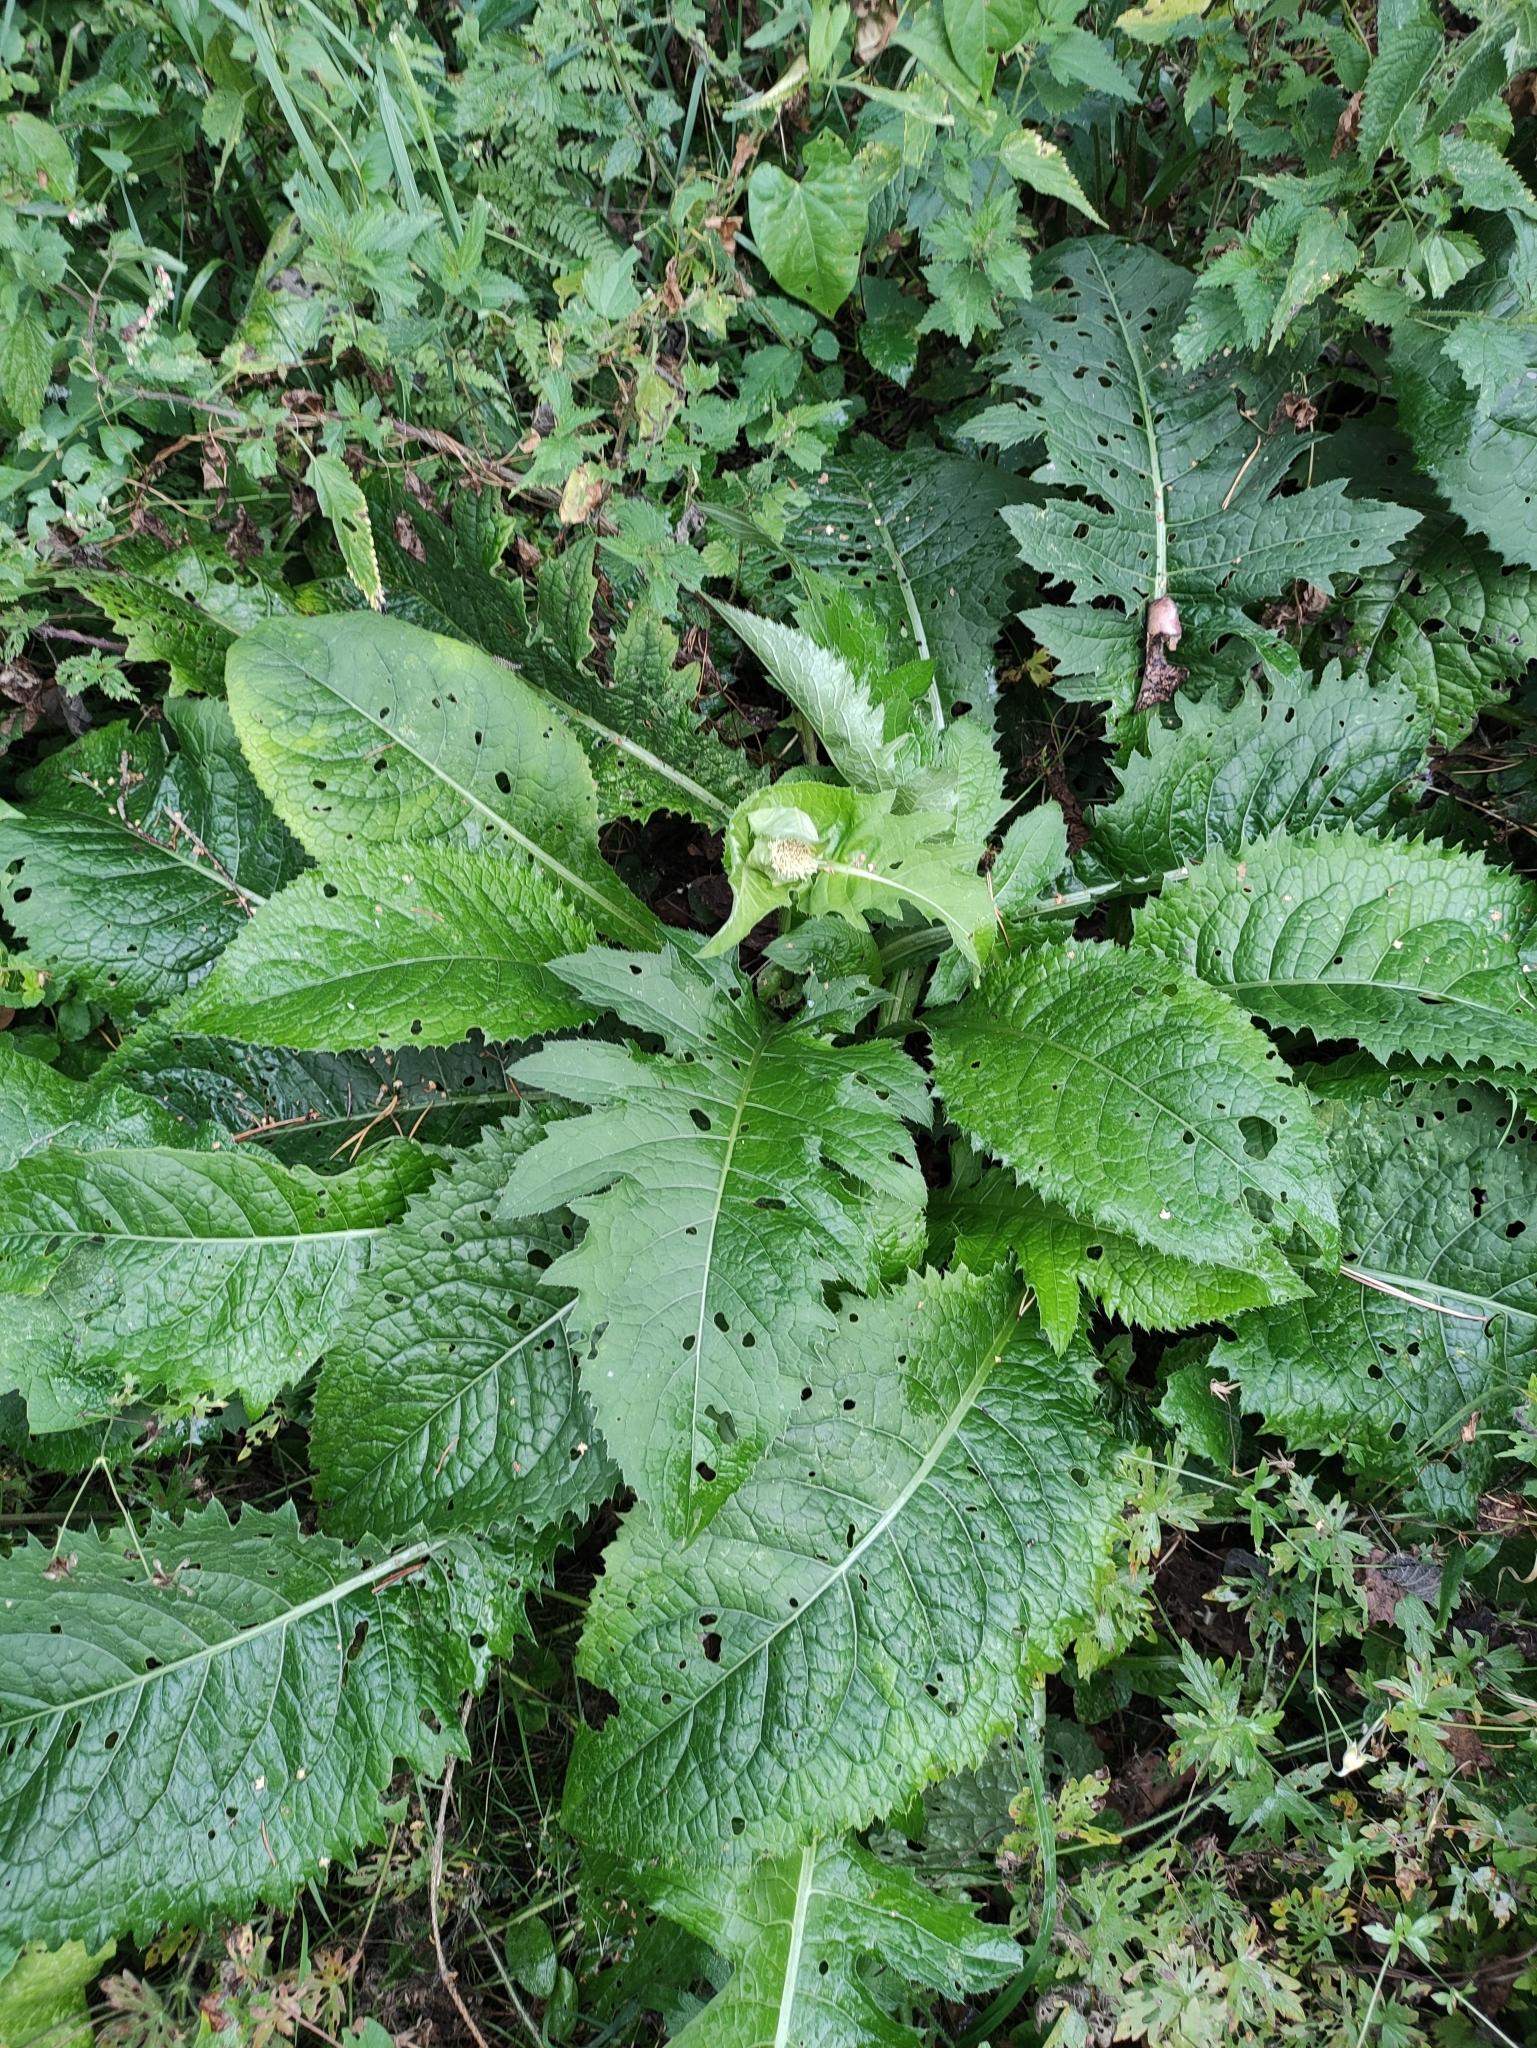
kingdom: Plantae
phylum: Tracheophyta
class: Magnoliopsida
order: Asterales
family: Asteraceae
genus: Cirsium
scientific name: Cirsium oleraceum
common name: Cabbage thistle
